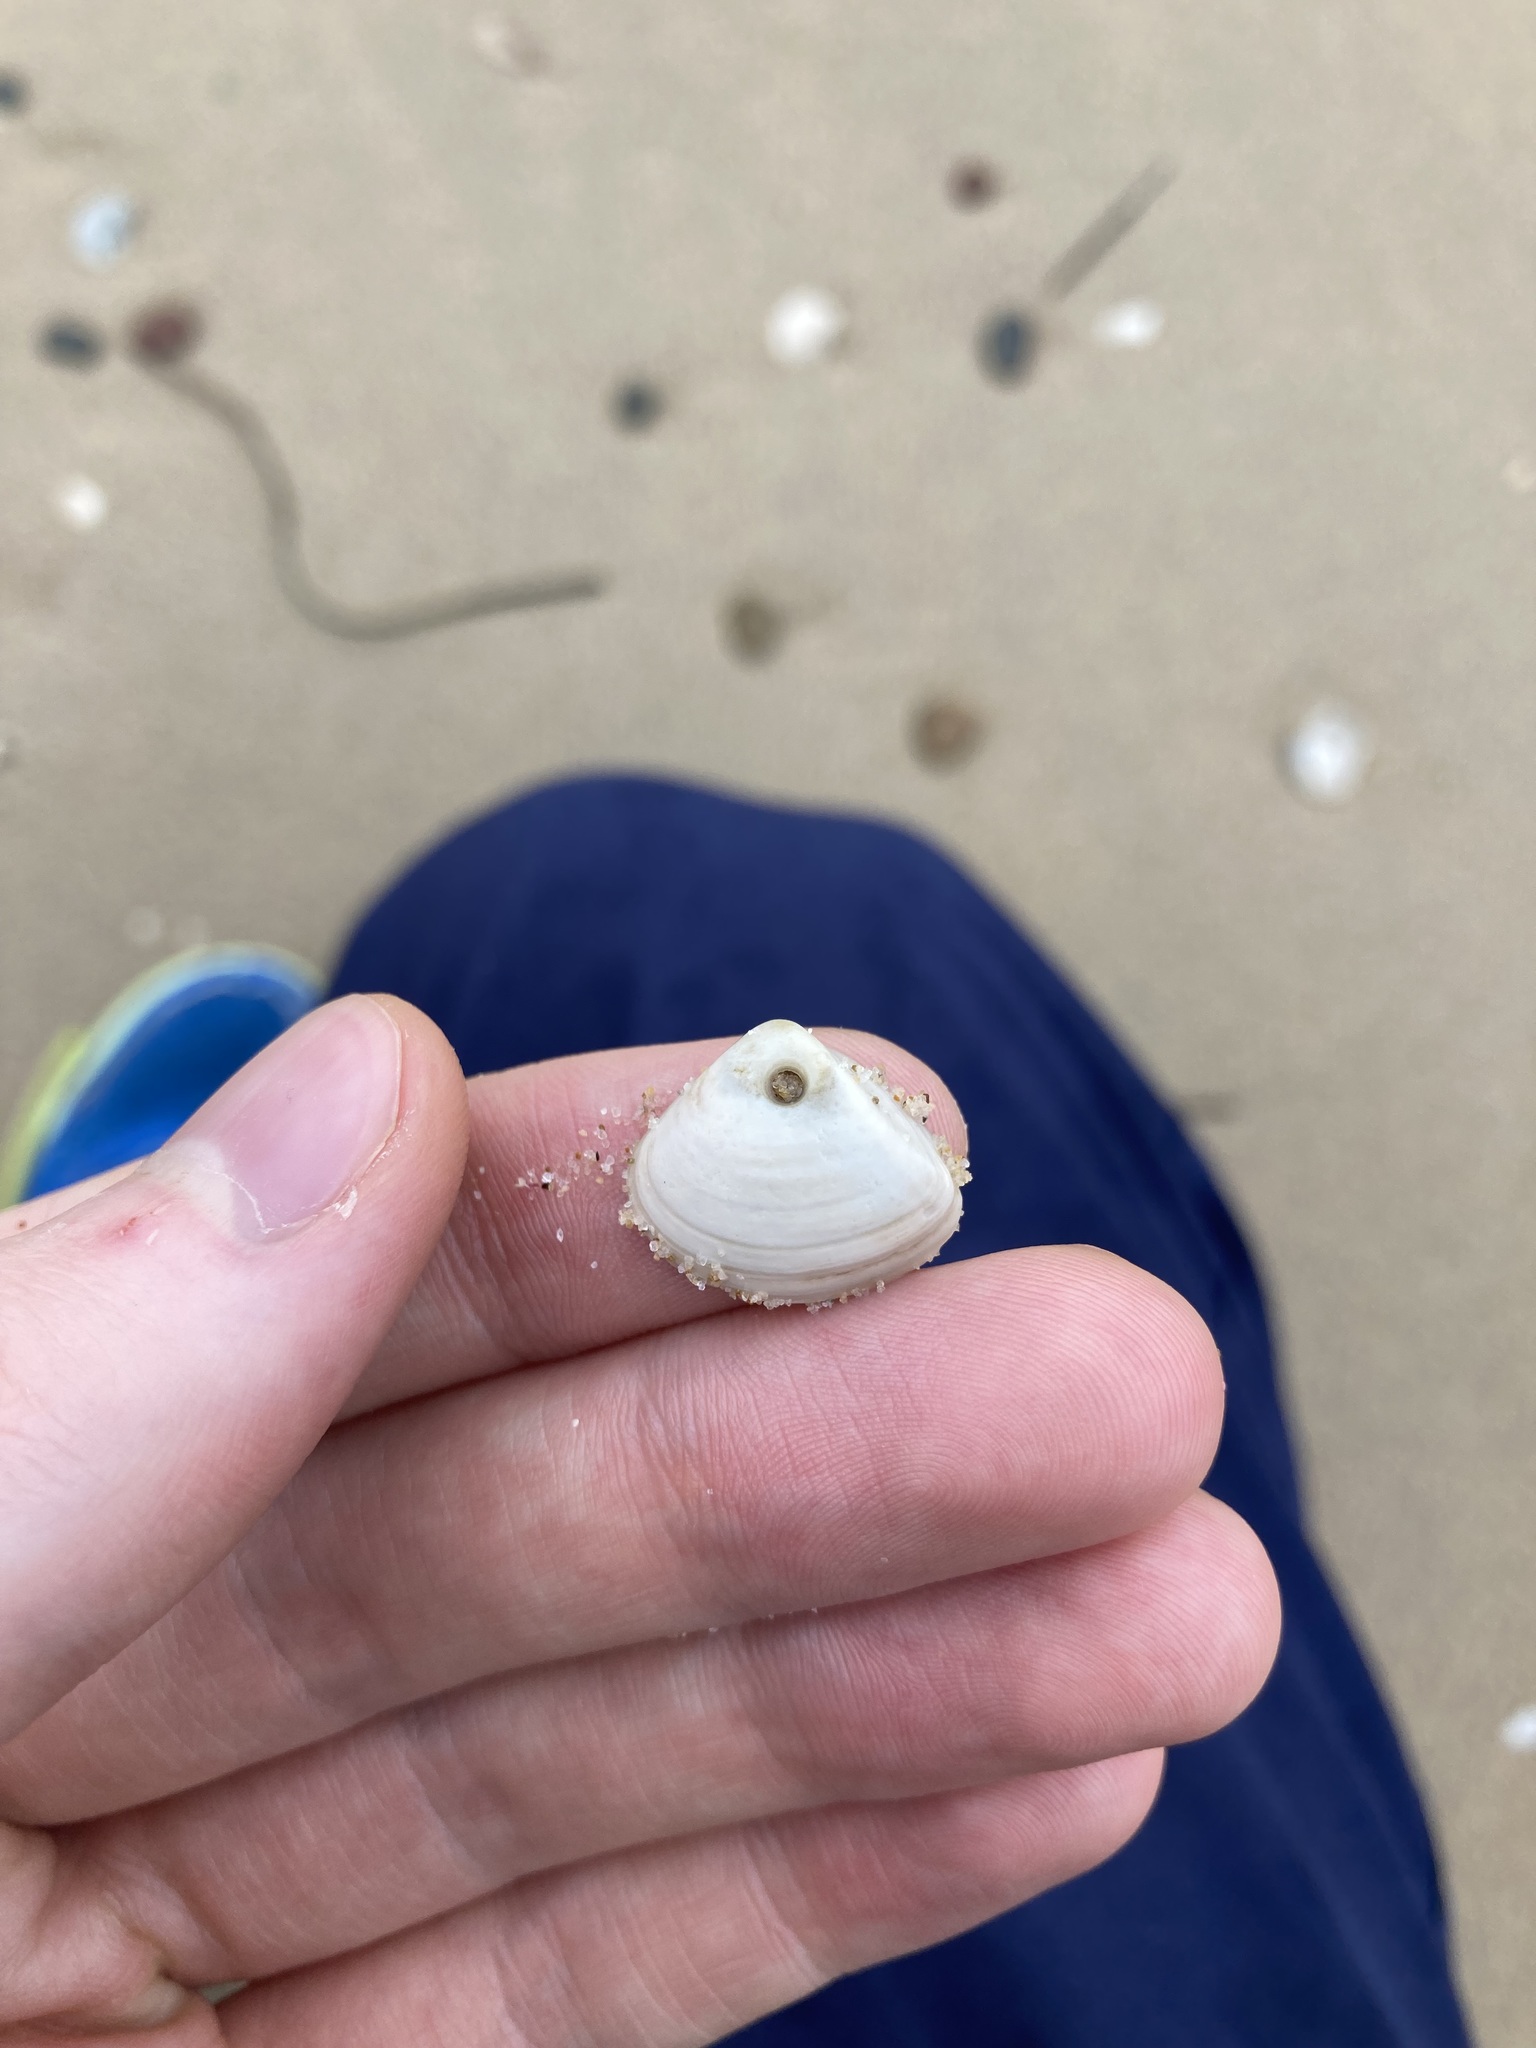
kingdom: Animalia
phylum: Mollusca
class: Bivalvia
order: Venerida
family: Mactridae
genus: Spisula
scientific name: Spisula trigonella
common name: Trigonal mactra
